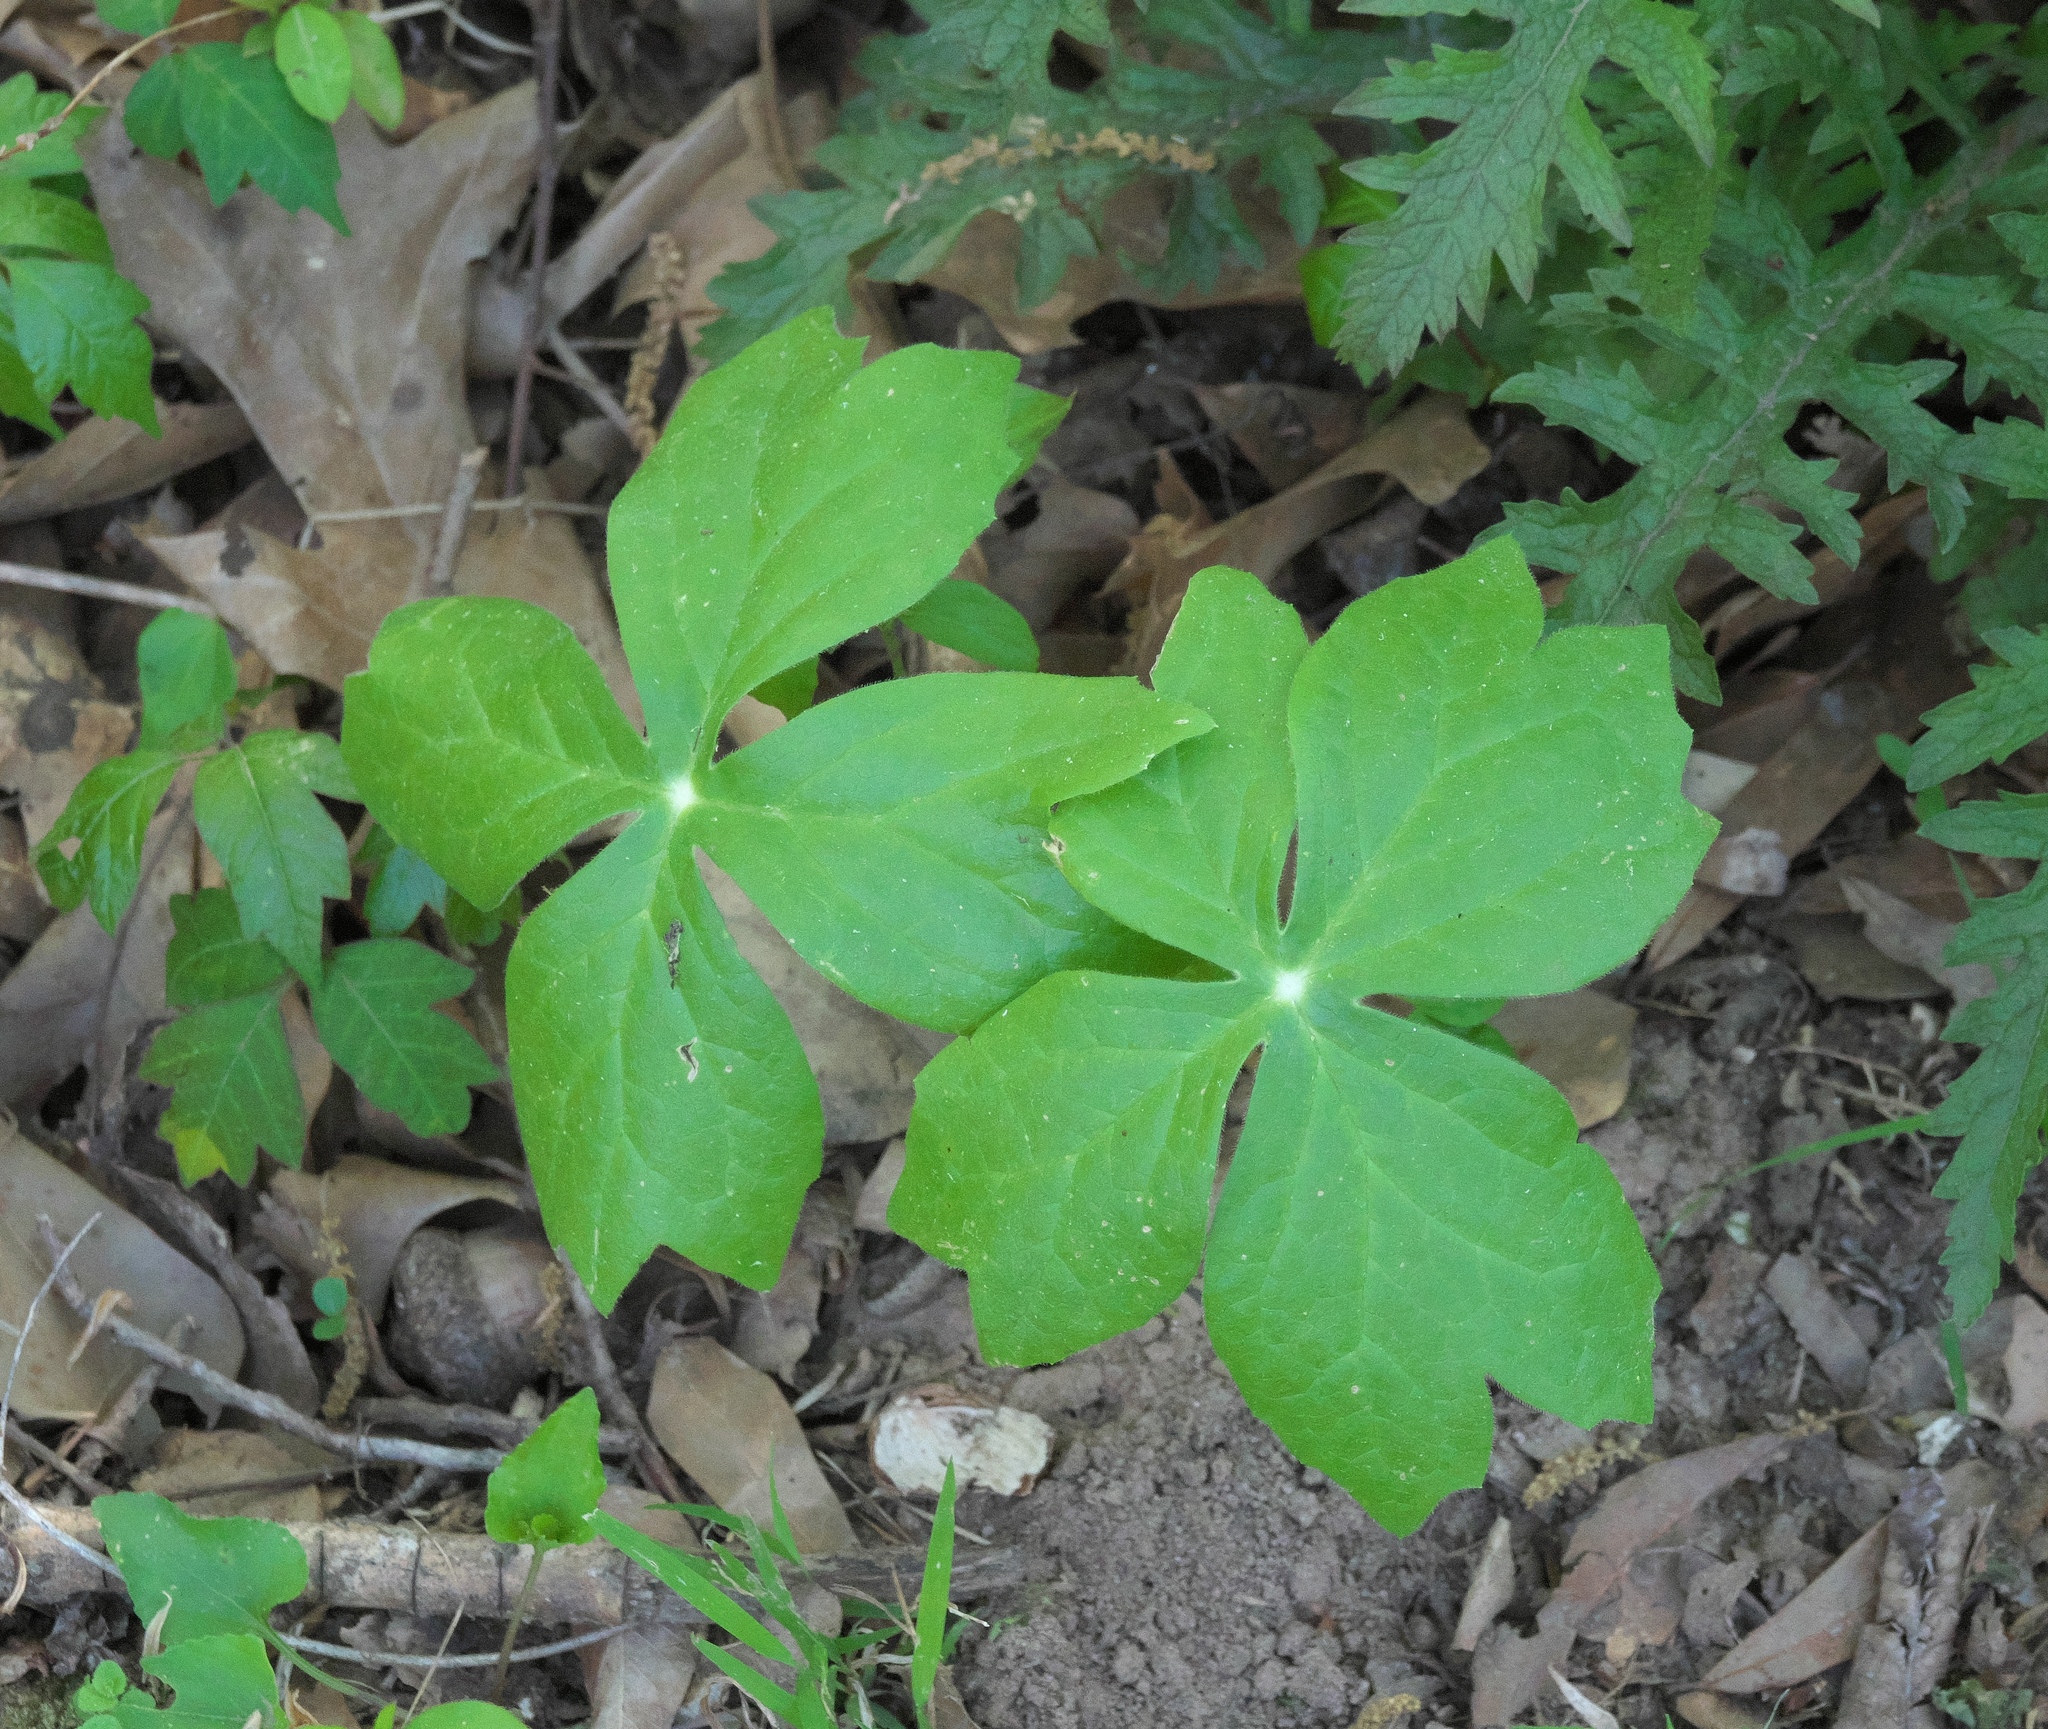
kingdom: Plantae
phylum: Tracheophyta
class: Magnoliopsida
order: Ranunculales
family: Berberidaceae
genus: Podophyllum
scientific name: Podophyllum peltatum
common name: Wild mandrake
